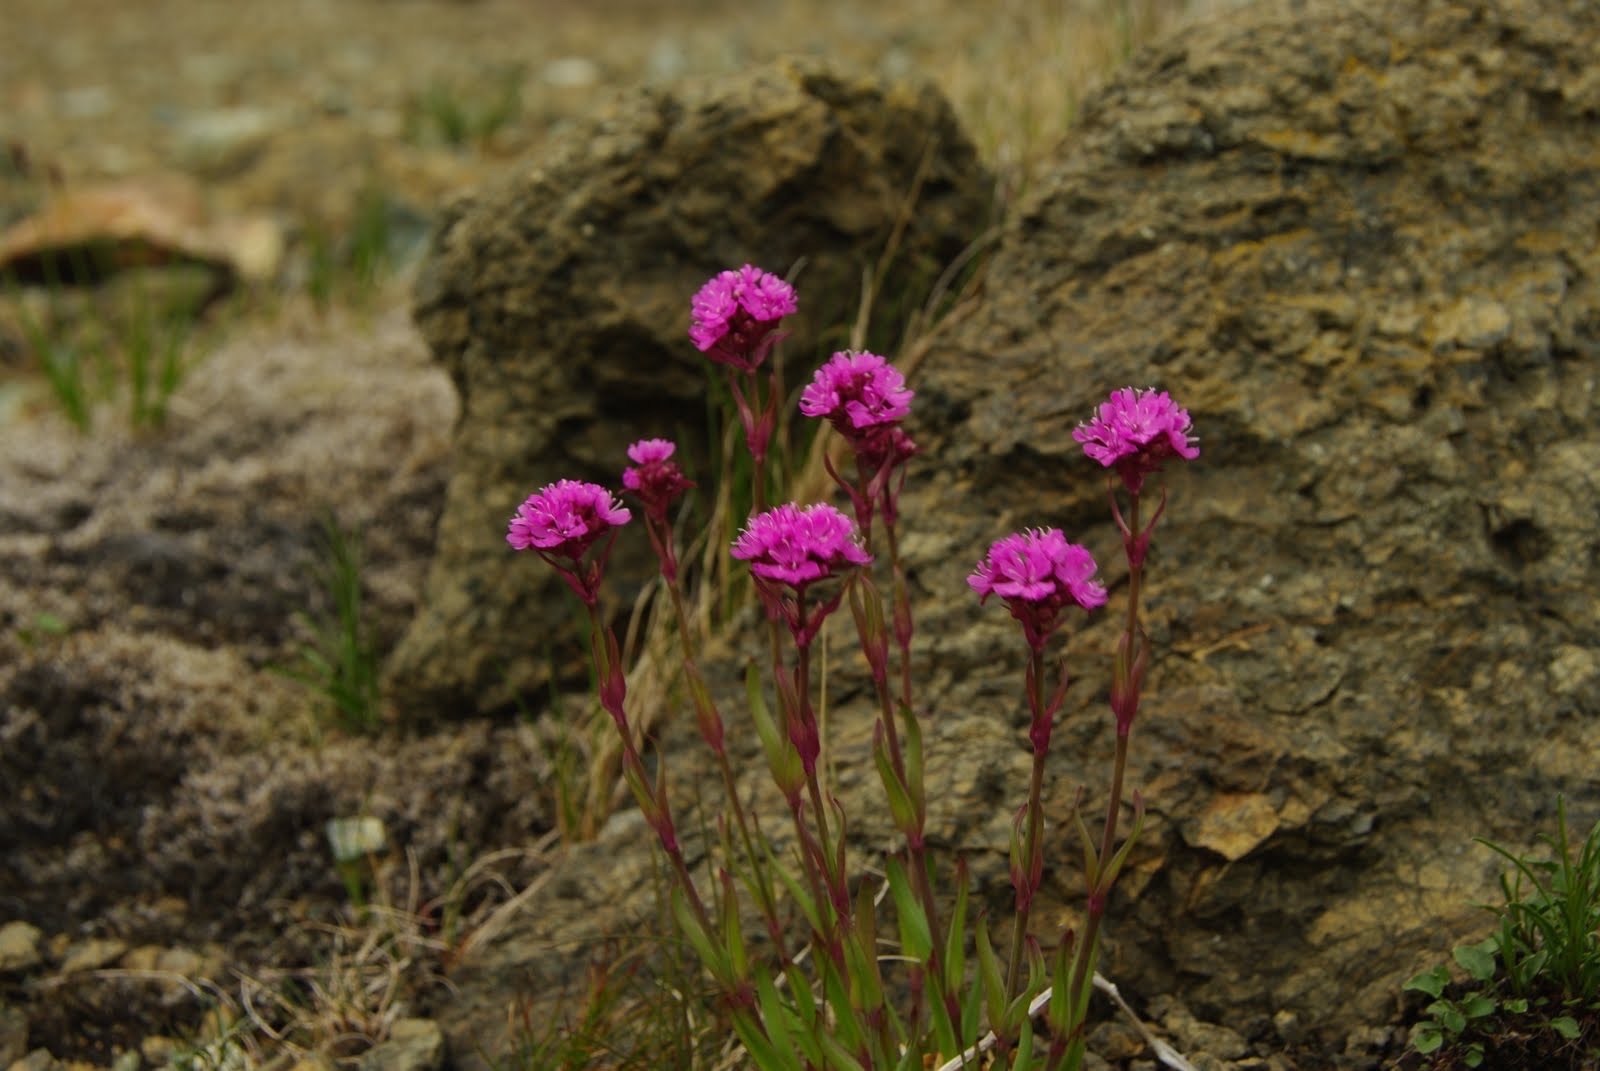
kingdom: Plantae
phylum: Tracheophyta
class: Magnoliopsida
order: Caryophyllales
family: Caryophyllaceae
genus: Viscaria
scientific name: Viscaria alpina
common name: Alpine campion
